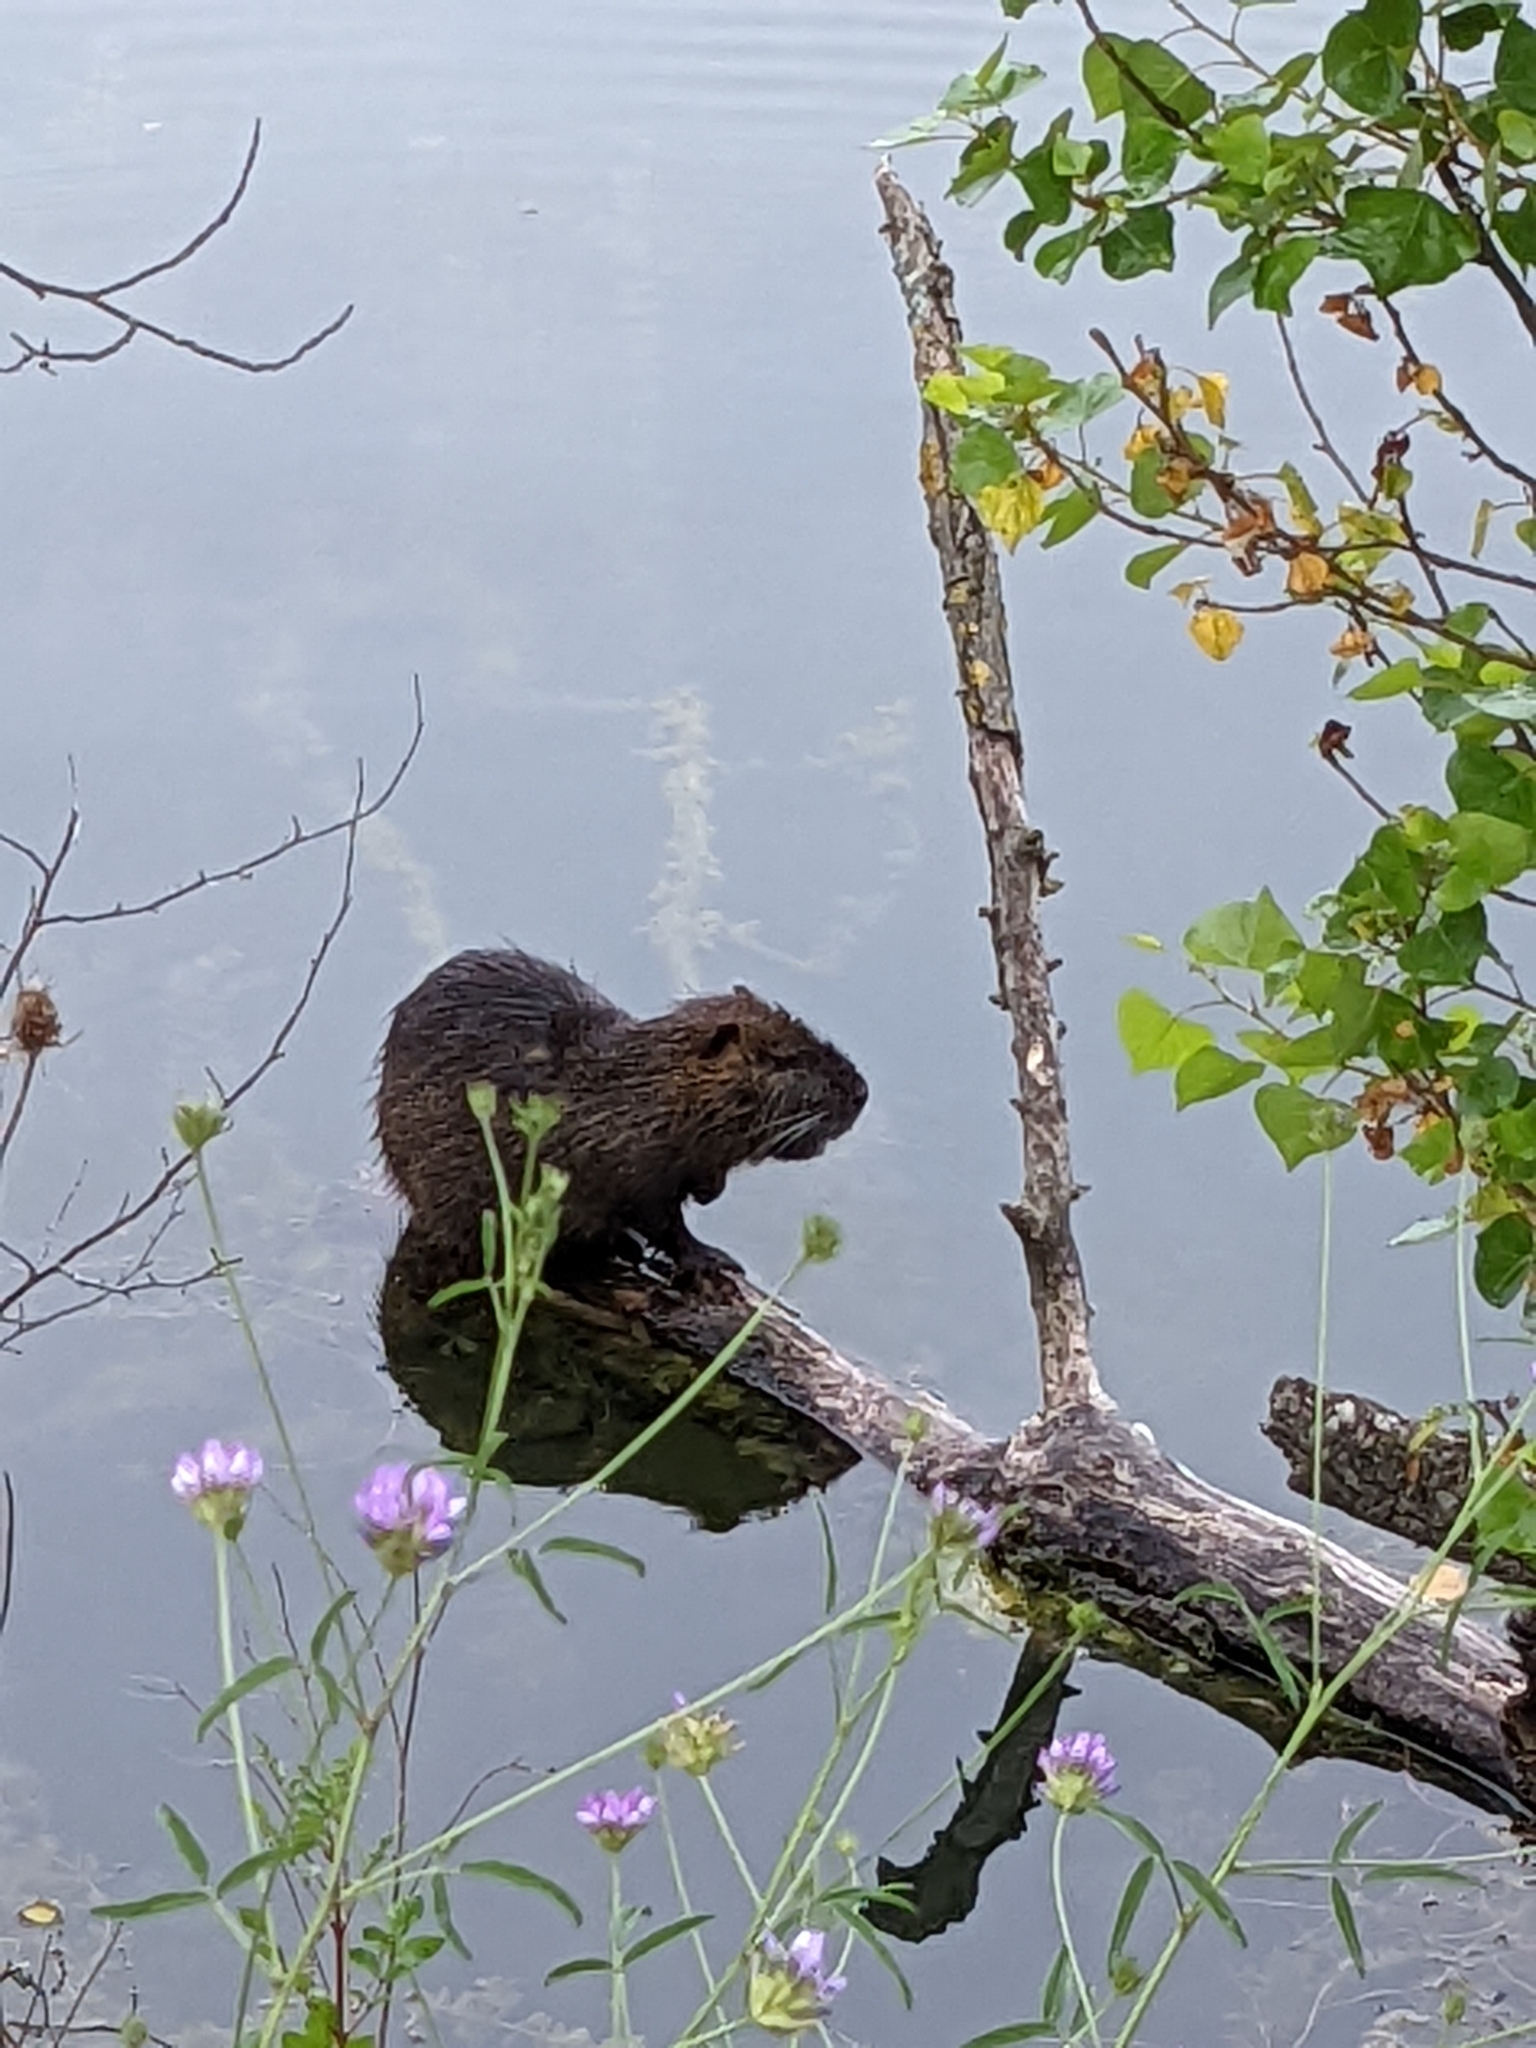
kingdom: Animalia
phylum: Chordata
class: Mammalia
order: Rodentia
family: Myocastoridae
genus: Myocastor
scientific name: Myocastor coypus
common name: Coypu
